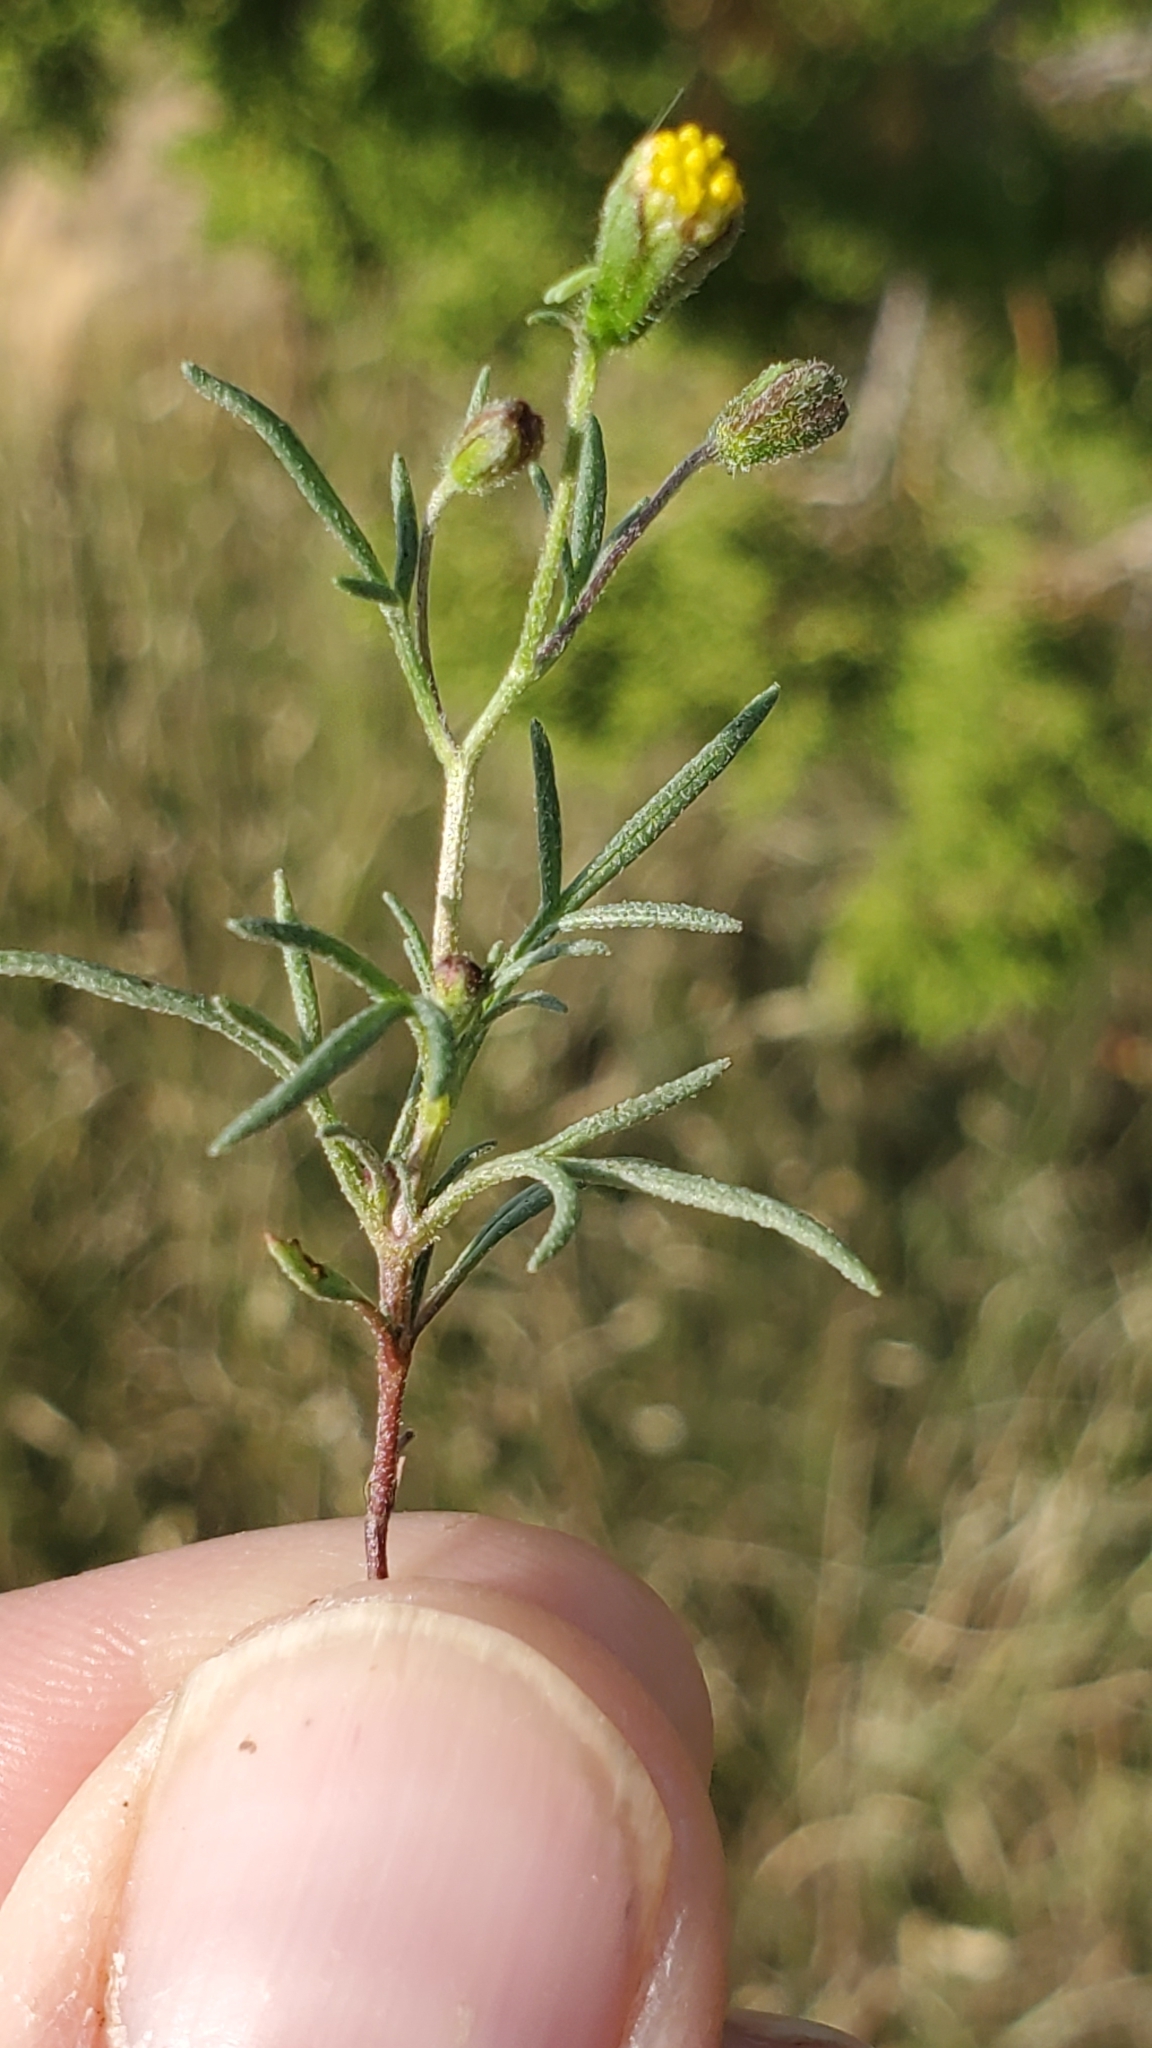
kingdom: Plantae
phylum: Tracheophyta
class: Magnoliopsida
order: Asterales
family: Asteraceae
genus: Picradeniopsis
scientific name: Picradeniopsis multiflora
